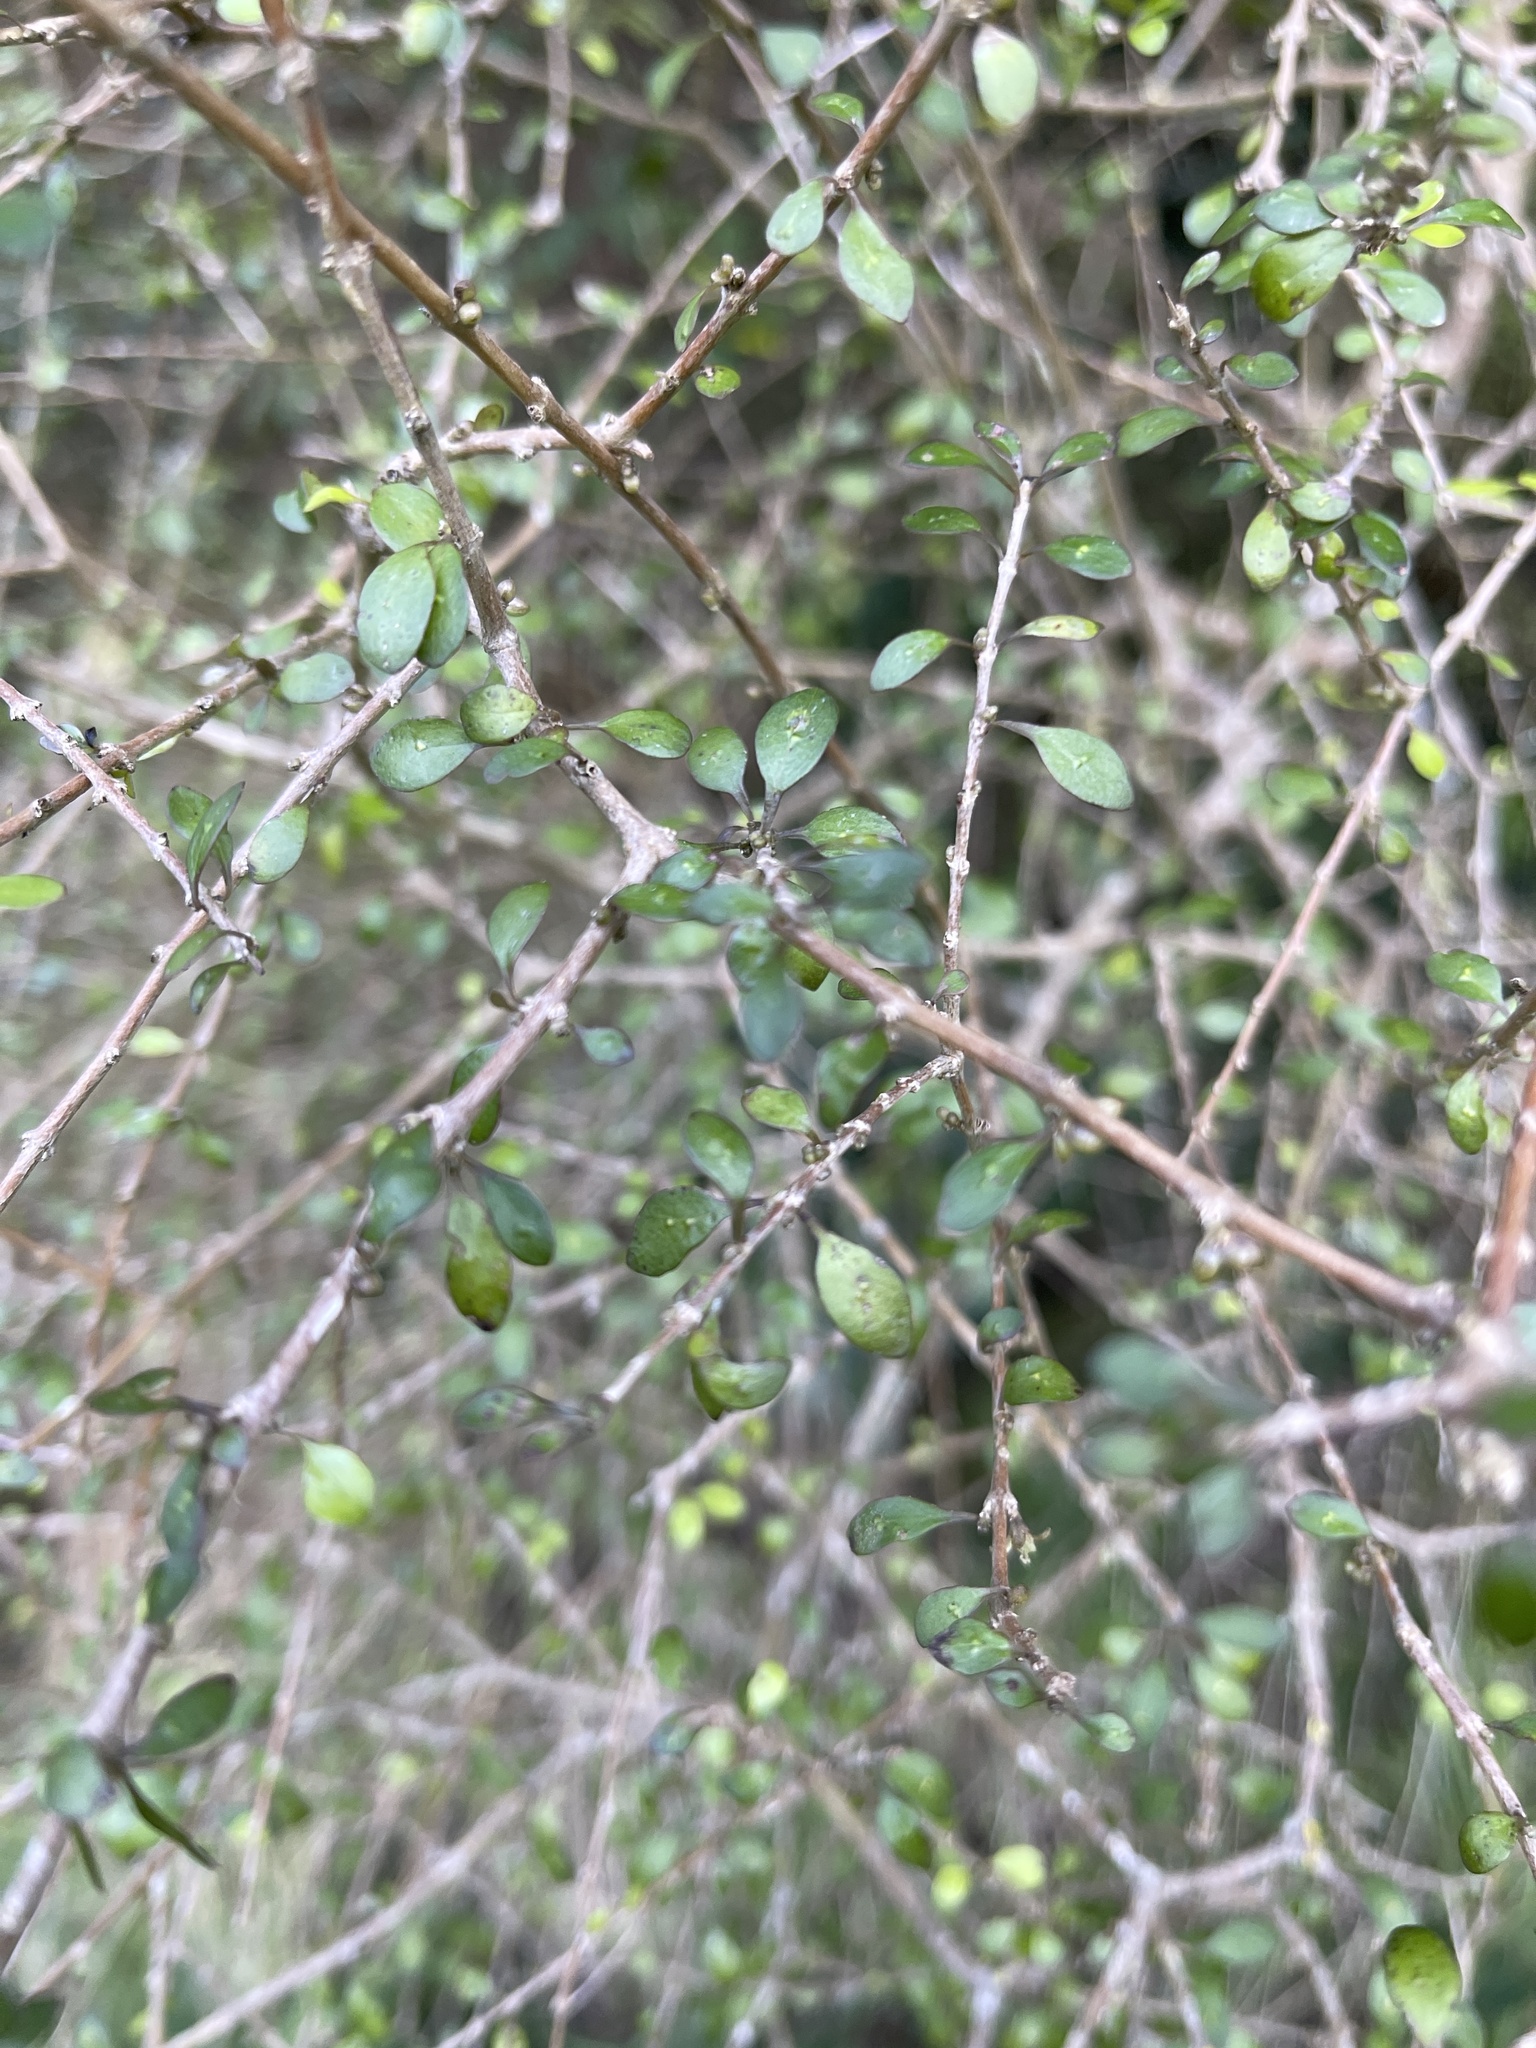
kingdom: Plantae
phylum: Tracheophyta
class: Magnoliopsida
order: Gentianales
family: Rubiaceae
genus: Coprosma
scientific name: Coprosma virescens
